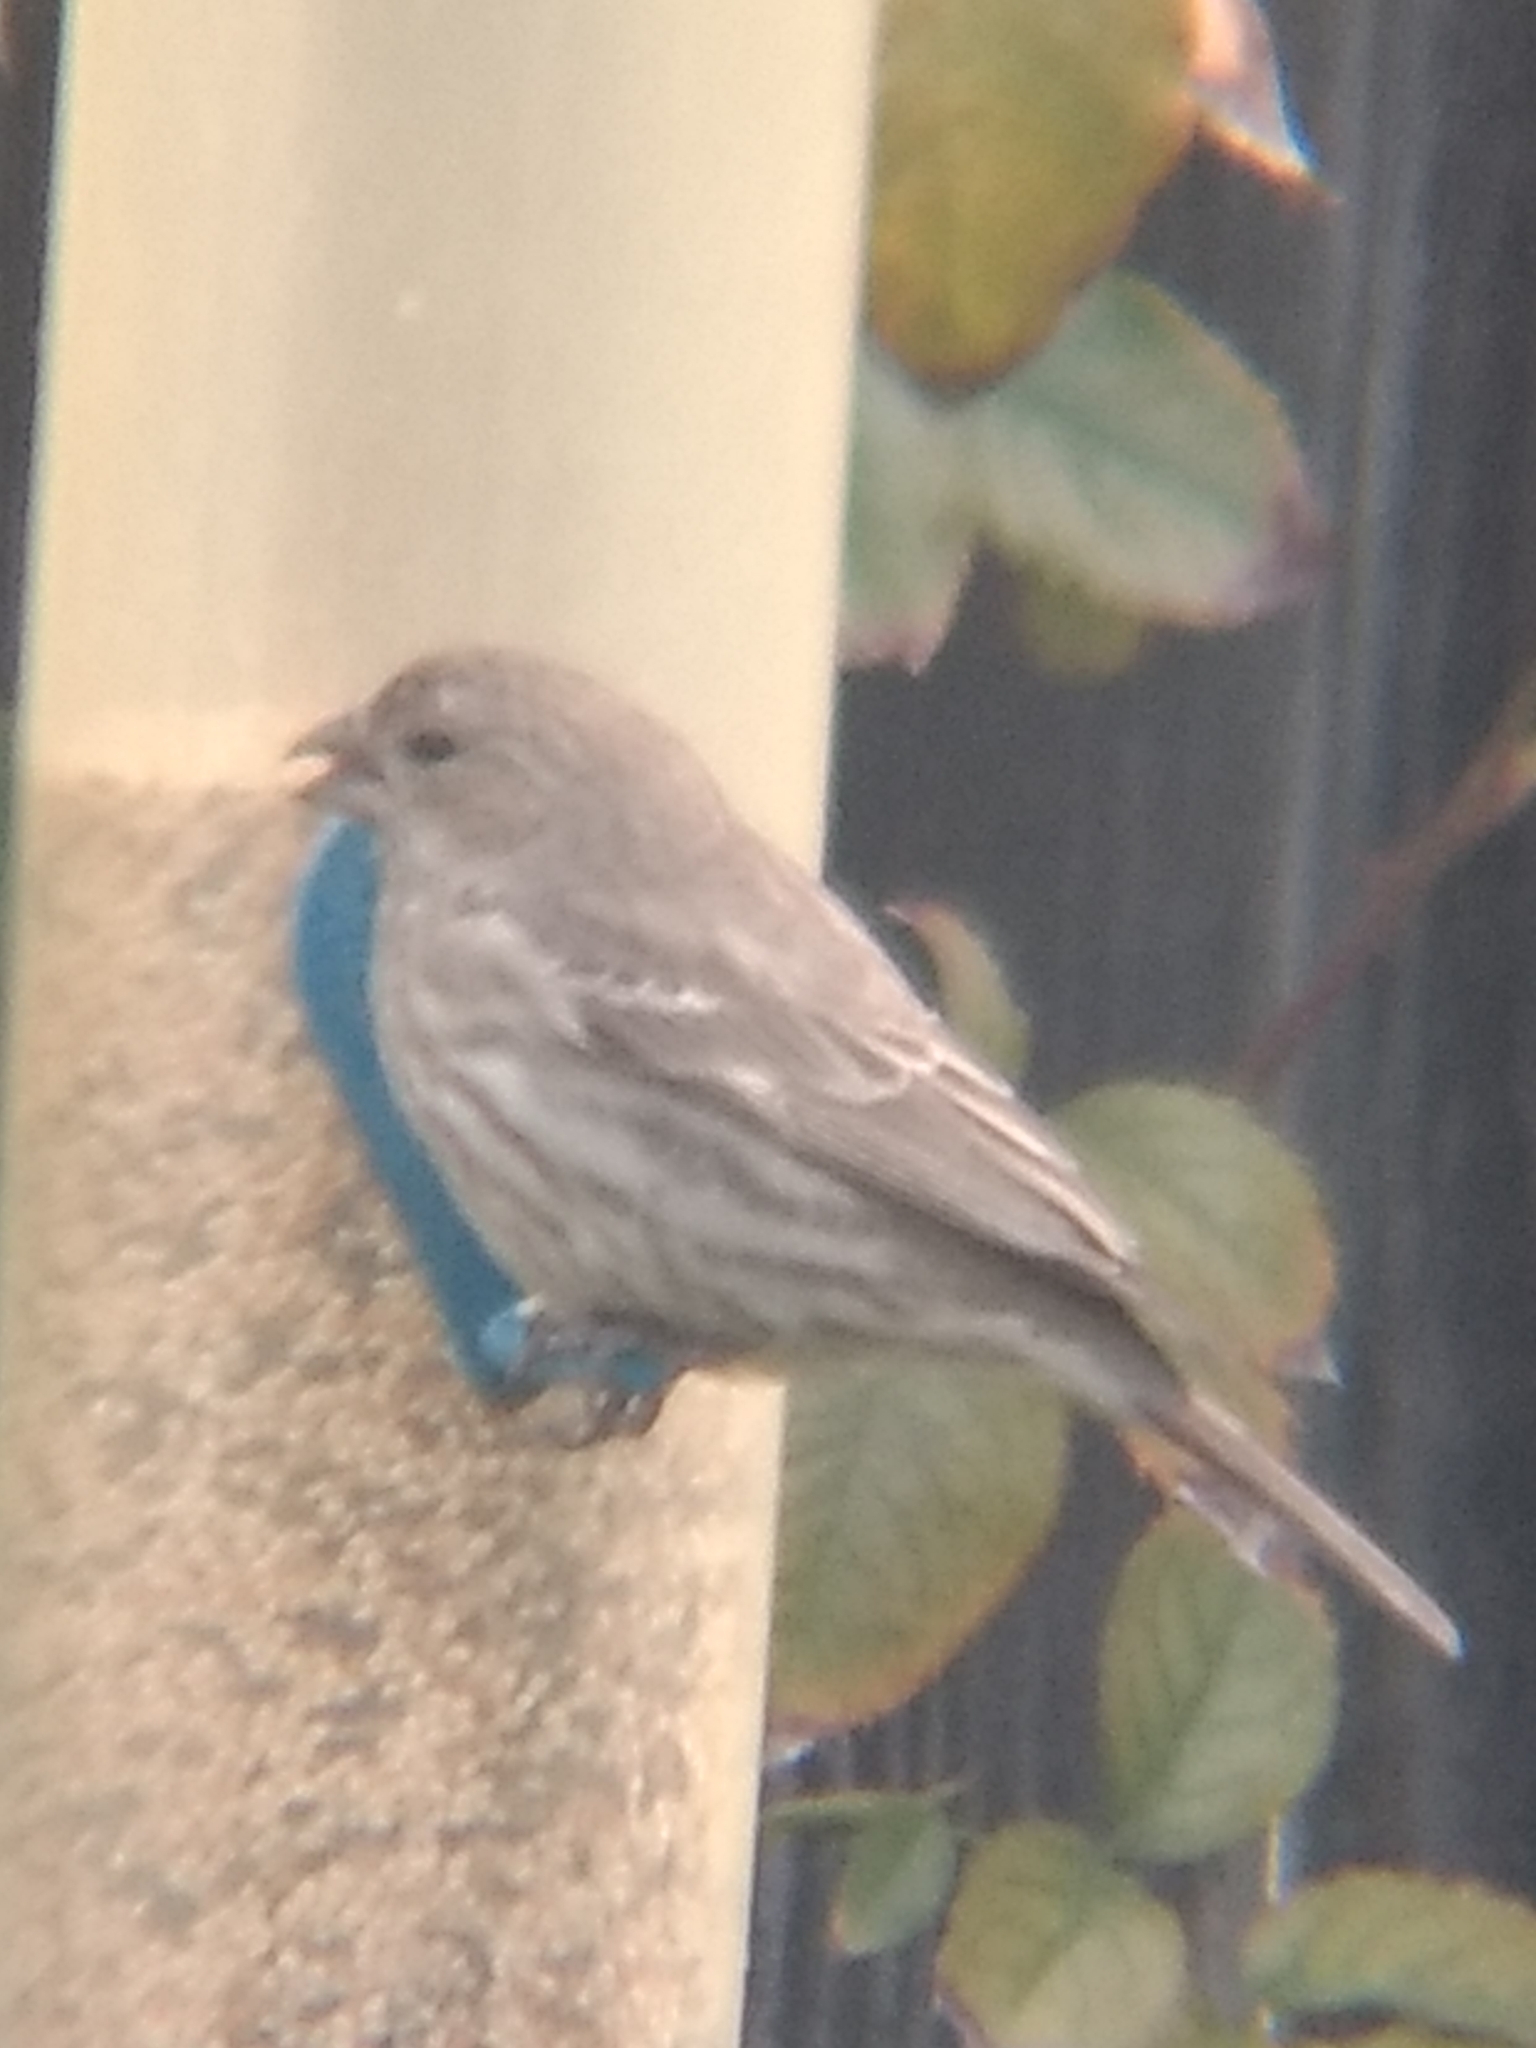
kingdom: Animalia
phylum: Chordata
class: Aves
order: Passeriformes
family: Fringillidae
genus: Haemorhous
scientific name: Haemorhous mexicanus
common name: House finch
